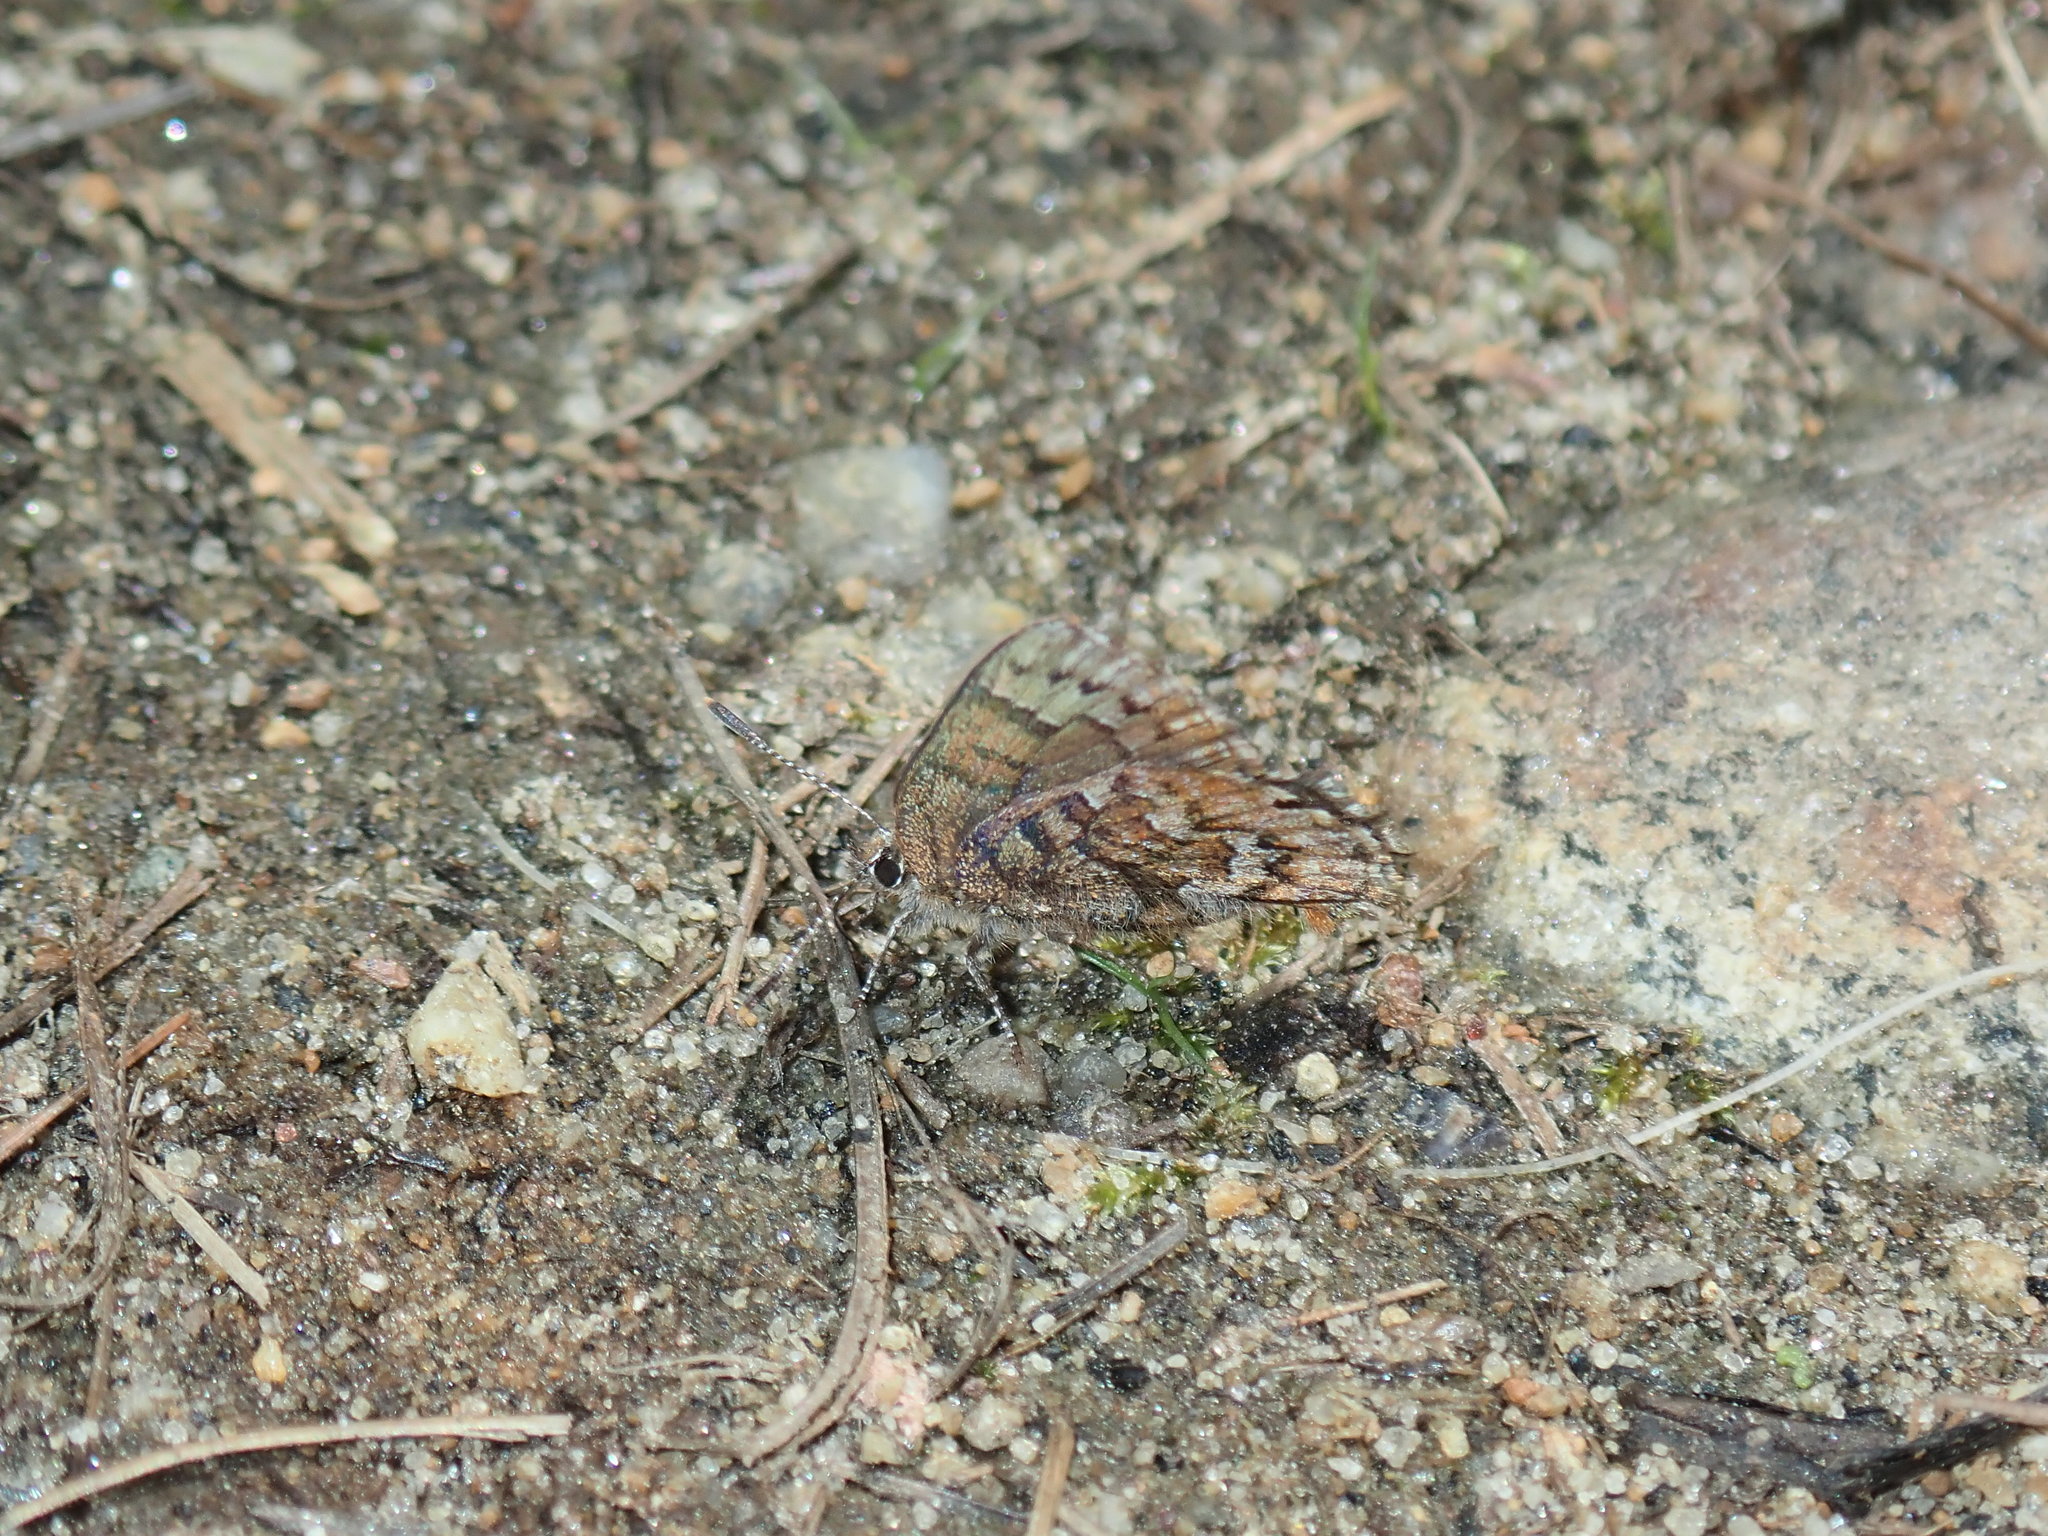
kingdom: Animalia
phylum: Arthropoda
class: Insecta
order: Lepidoptera
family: Lycaenidae
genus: Incisalia
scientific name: Incisalia niphon
